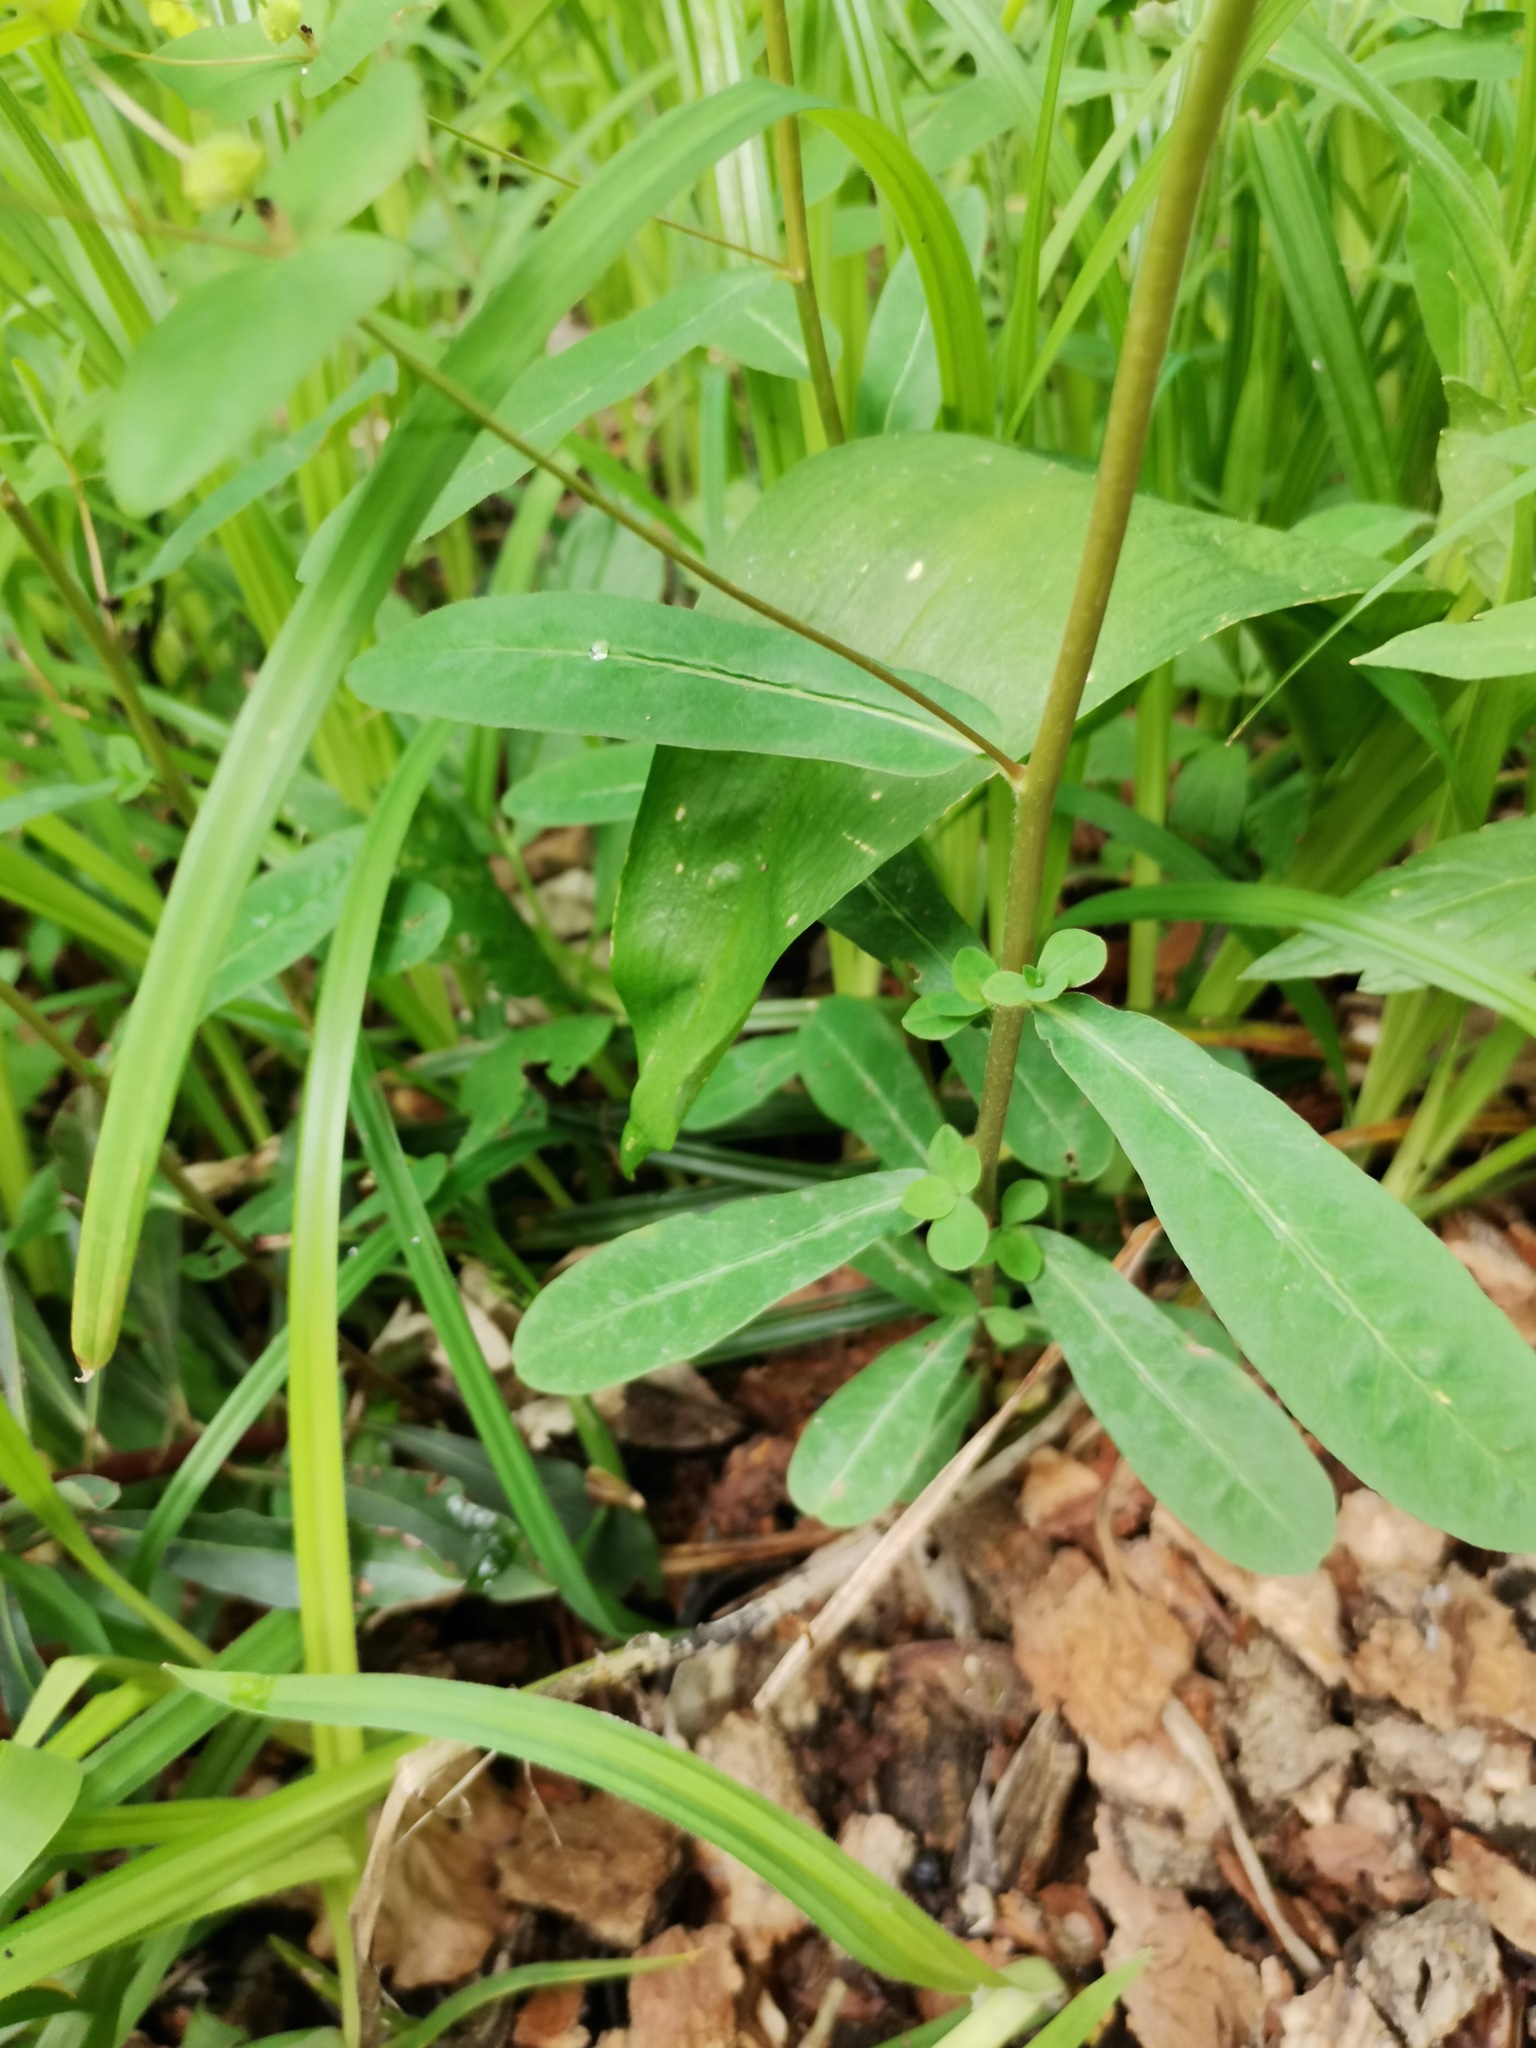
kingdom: Plantae
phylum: Tracheophyta
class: Magnoliopsida
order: Malpighiales
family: Euphorbiaceae
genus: Euphorbia
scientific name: Euphorbia dulcis
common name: Sweet spurge
